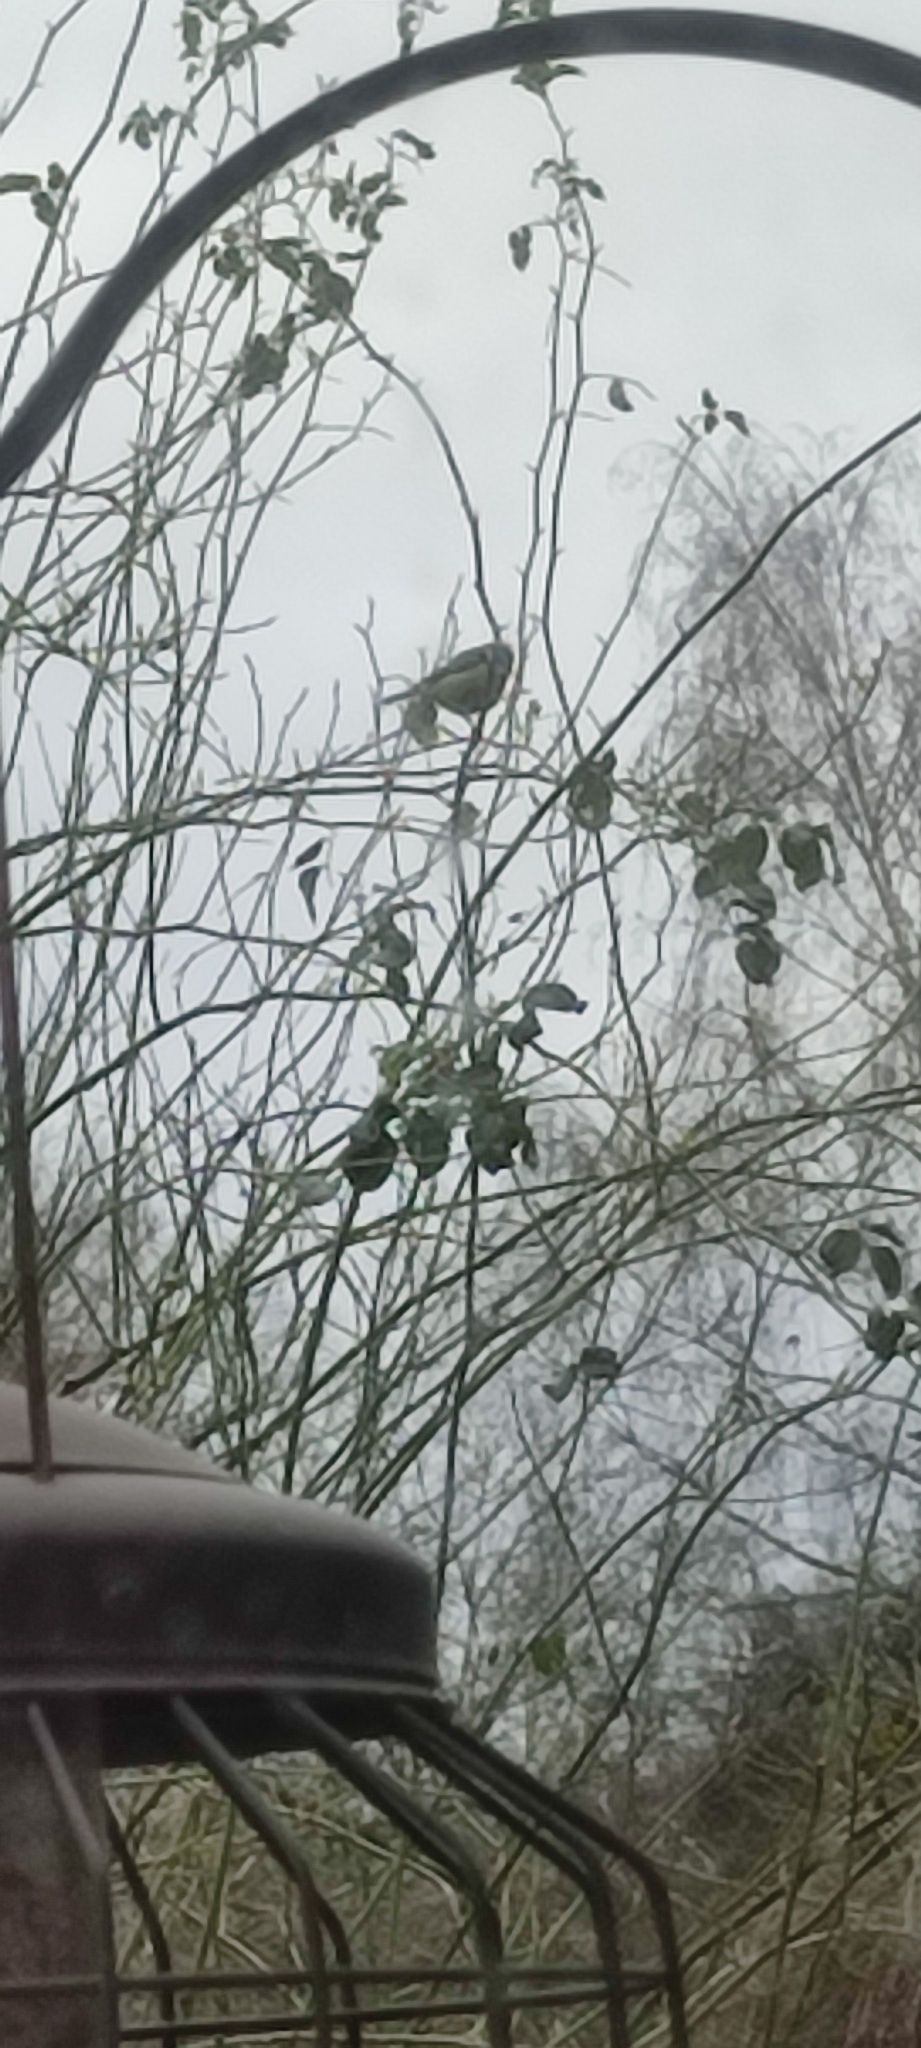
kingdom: Animalia
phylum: Chordata
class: Aves
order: Passeriformes
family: Paridae
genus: Cyanistes
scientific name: Cyanistes caeruleus
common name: Eurasian blue tit
